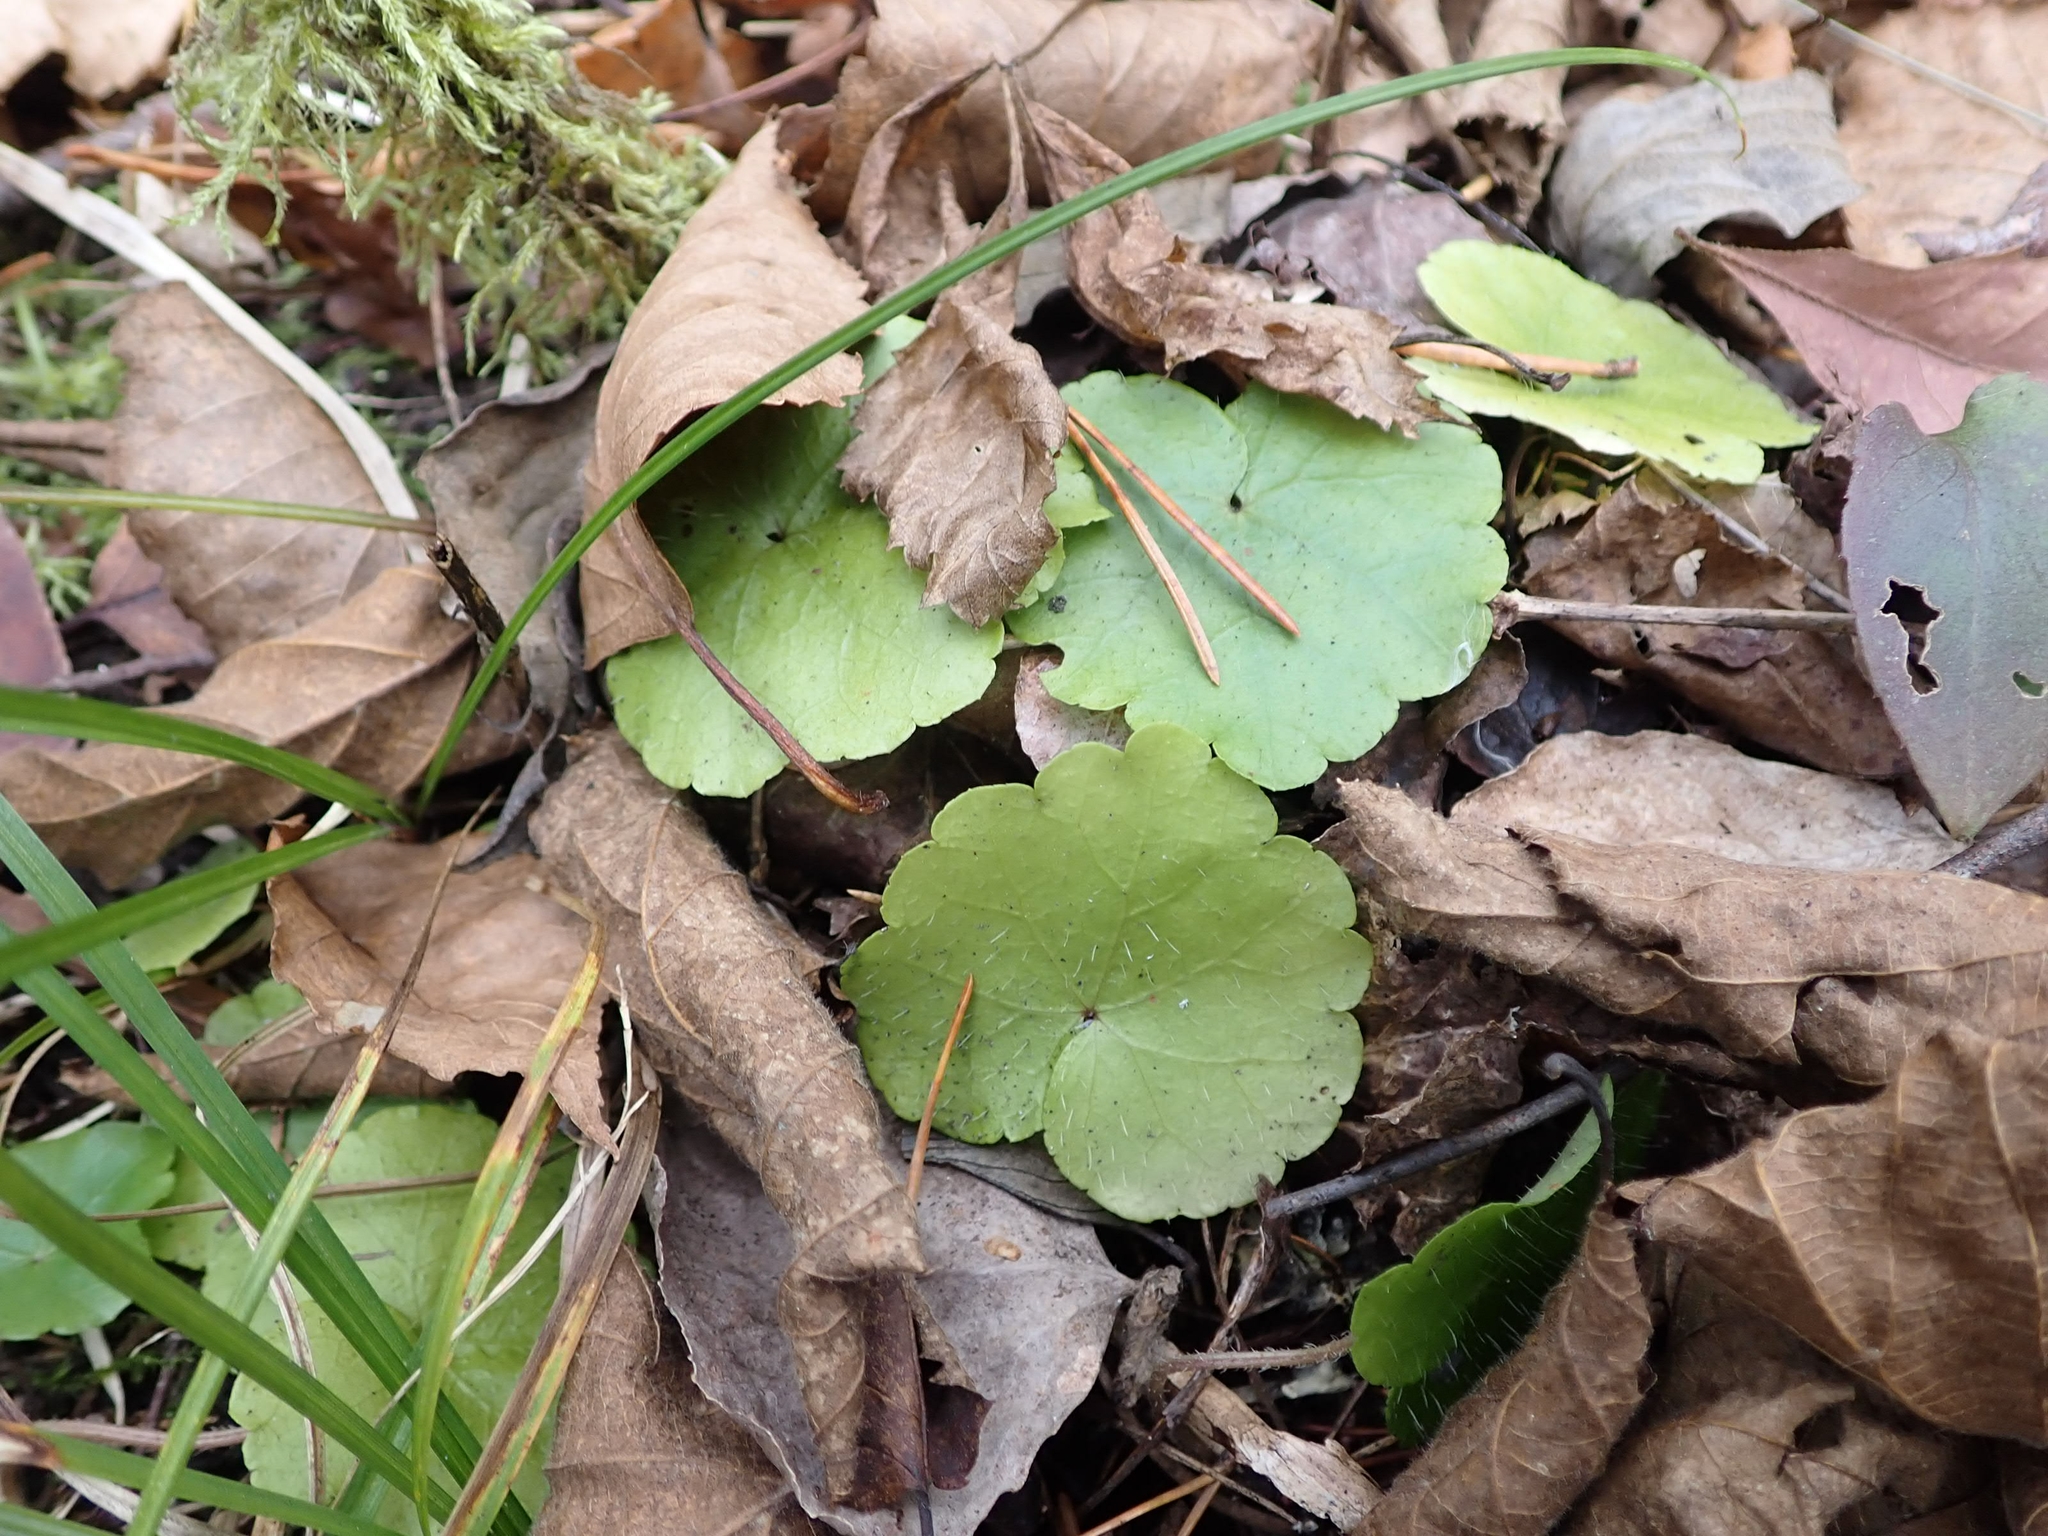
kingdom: Plantae
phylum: Tracheophyta
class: Magnoliopsida
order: Saxifragales
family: Saxifragaceae
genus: Mitella
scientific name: Mitella nuda
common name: Bare-stemmed bishop's-cap
